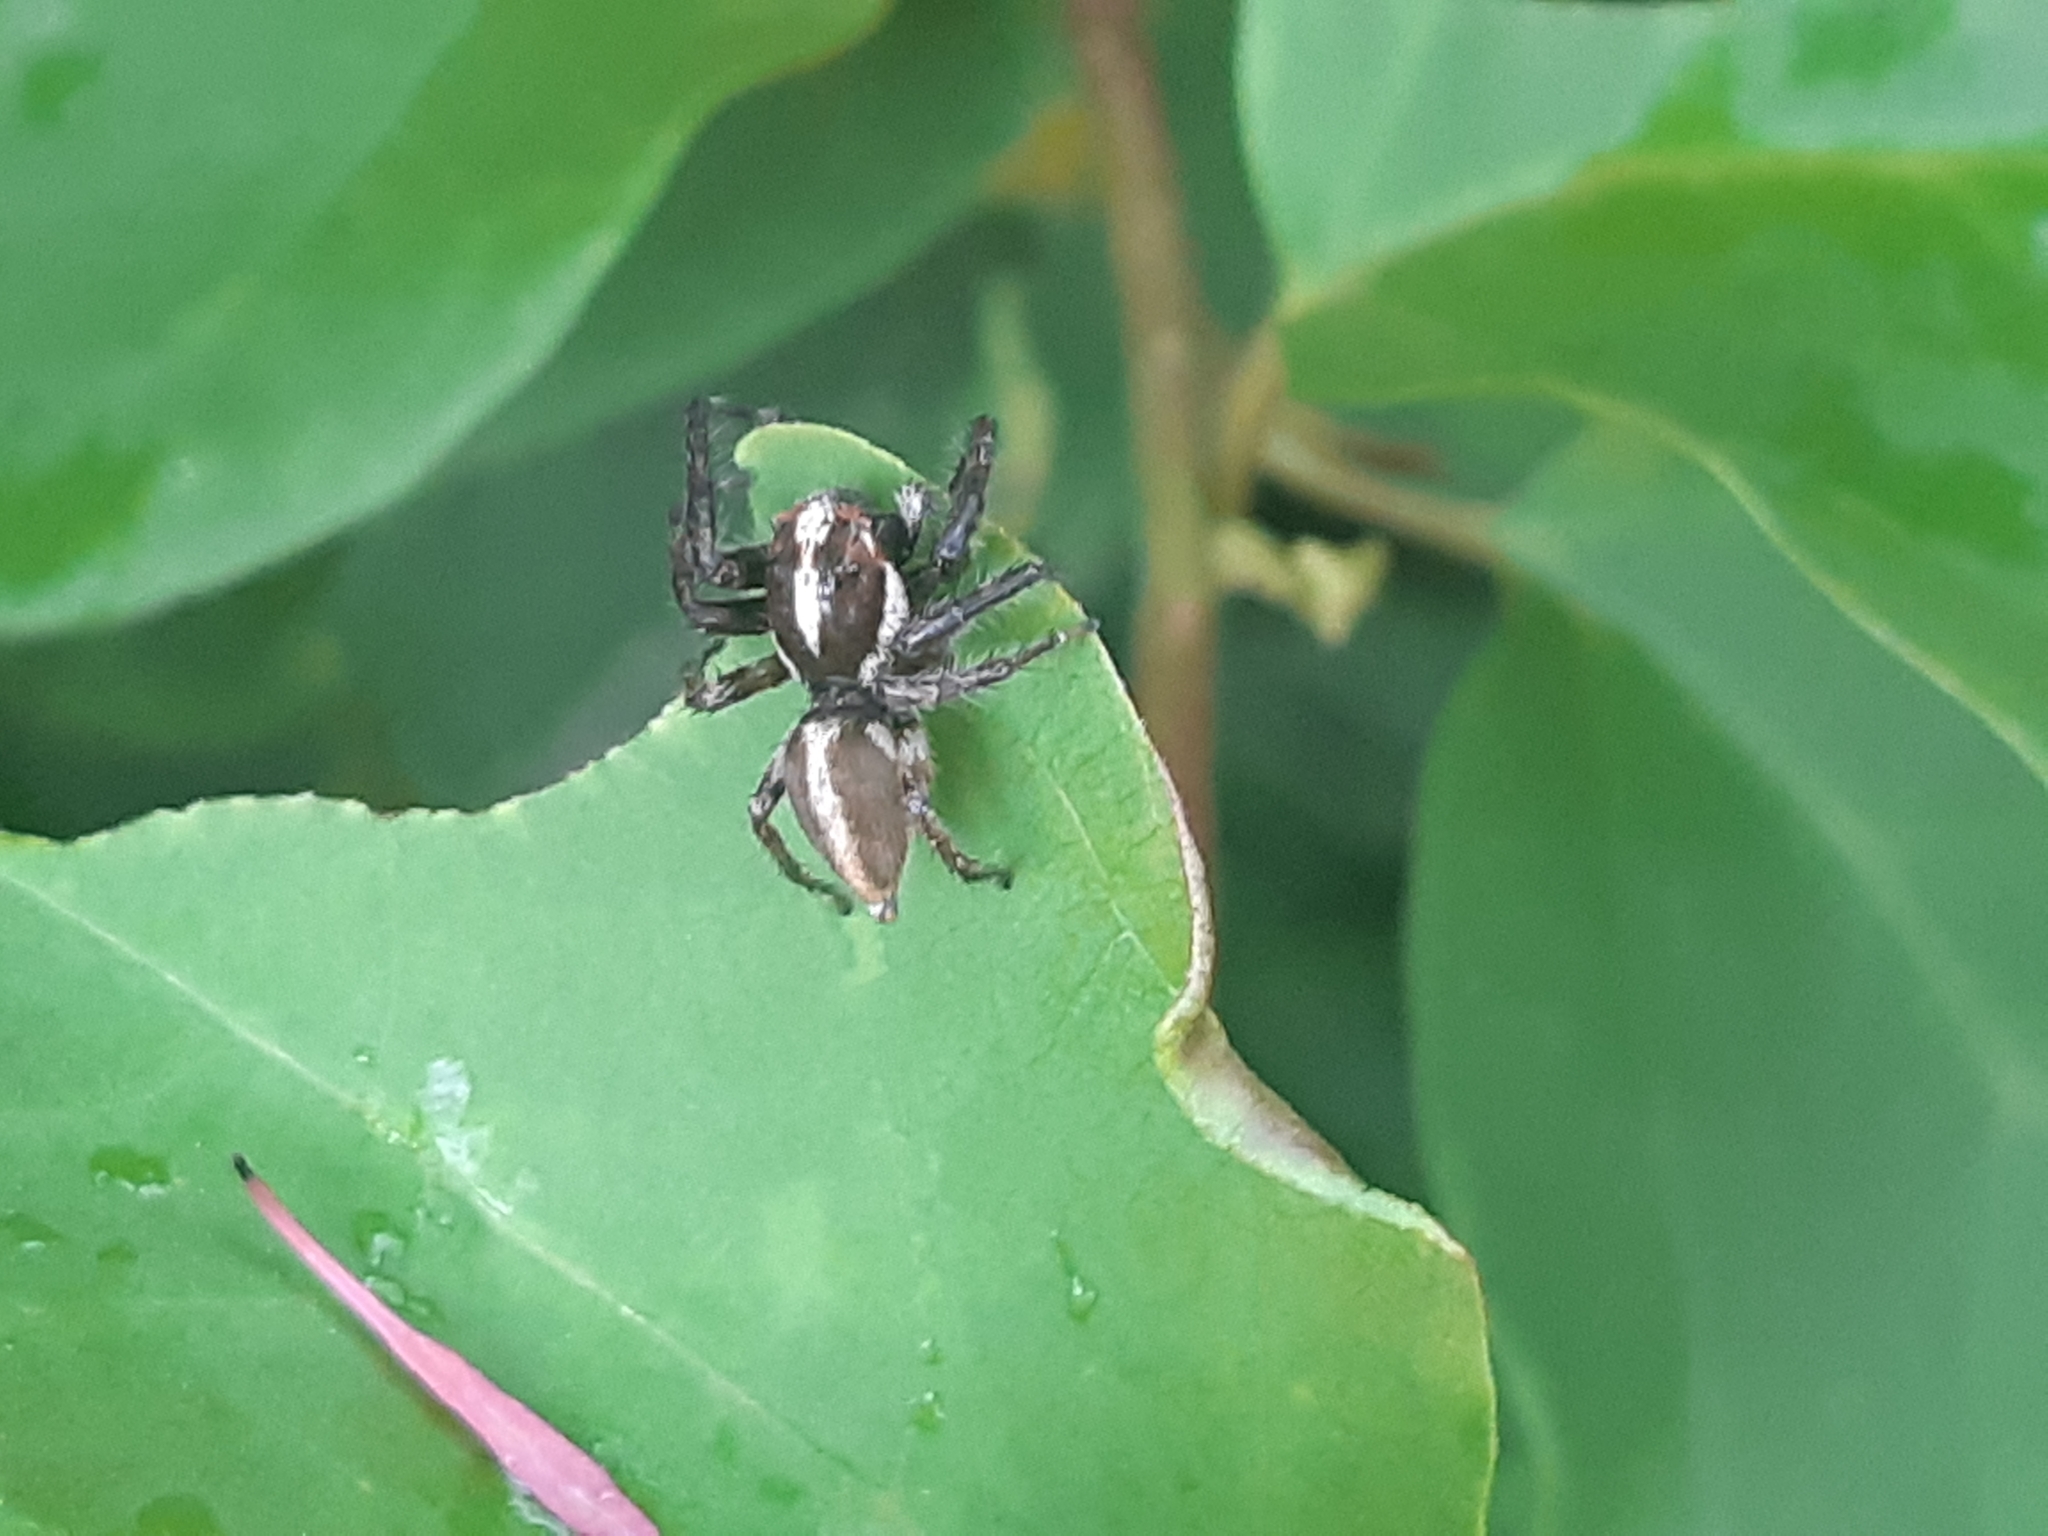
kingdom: Animalia
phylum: Arthropoda
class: Arachnida
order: Araneae
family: Salticidae
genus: Frigga
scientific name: Frigga crocuta
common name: Jumping spiders
